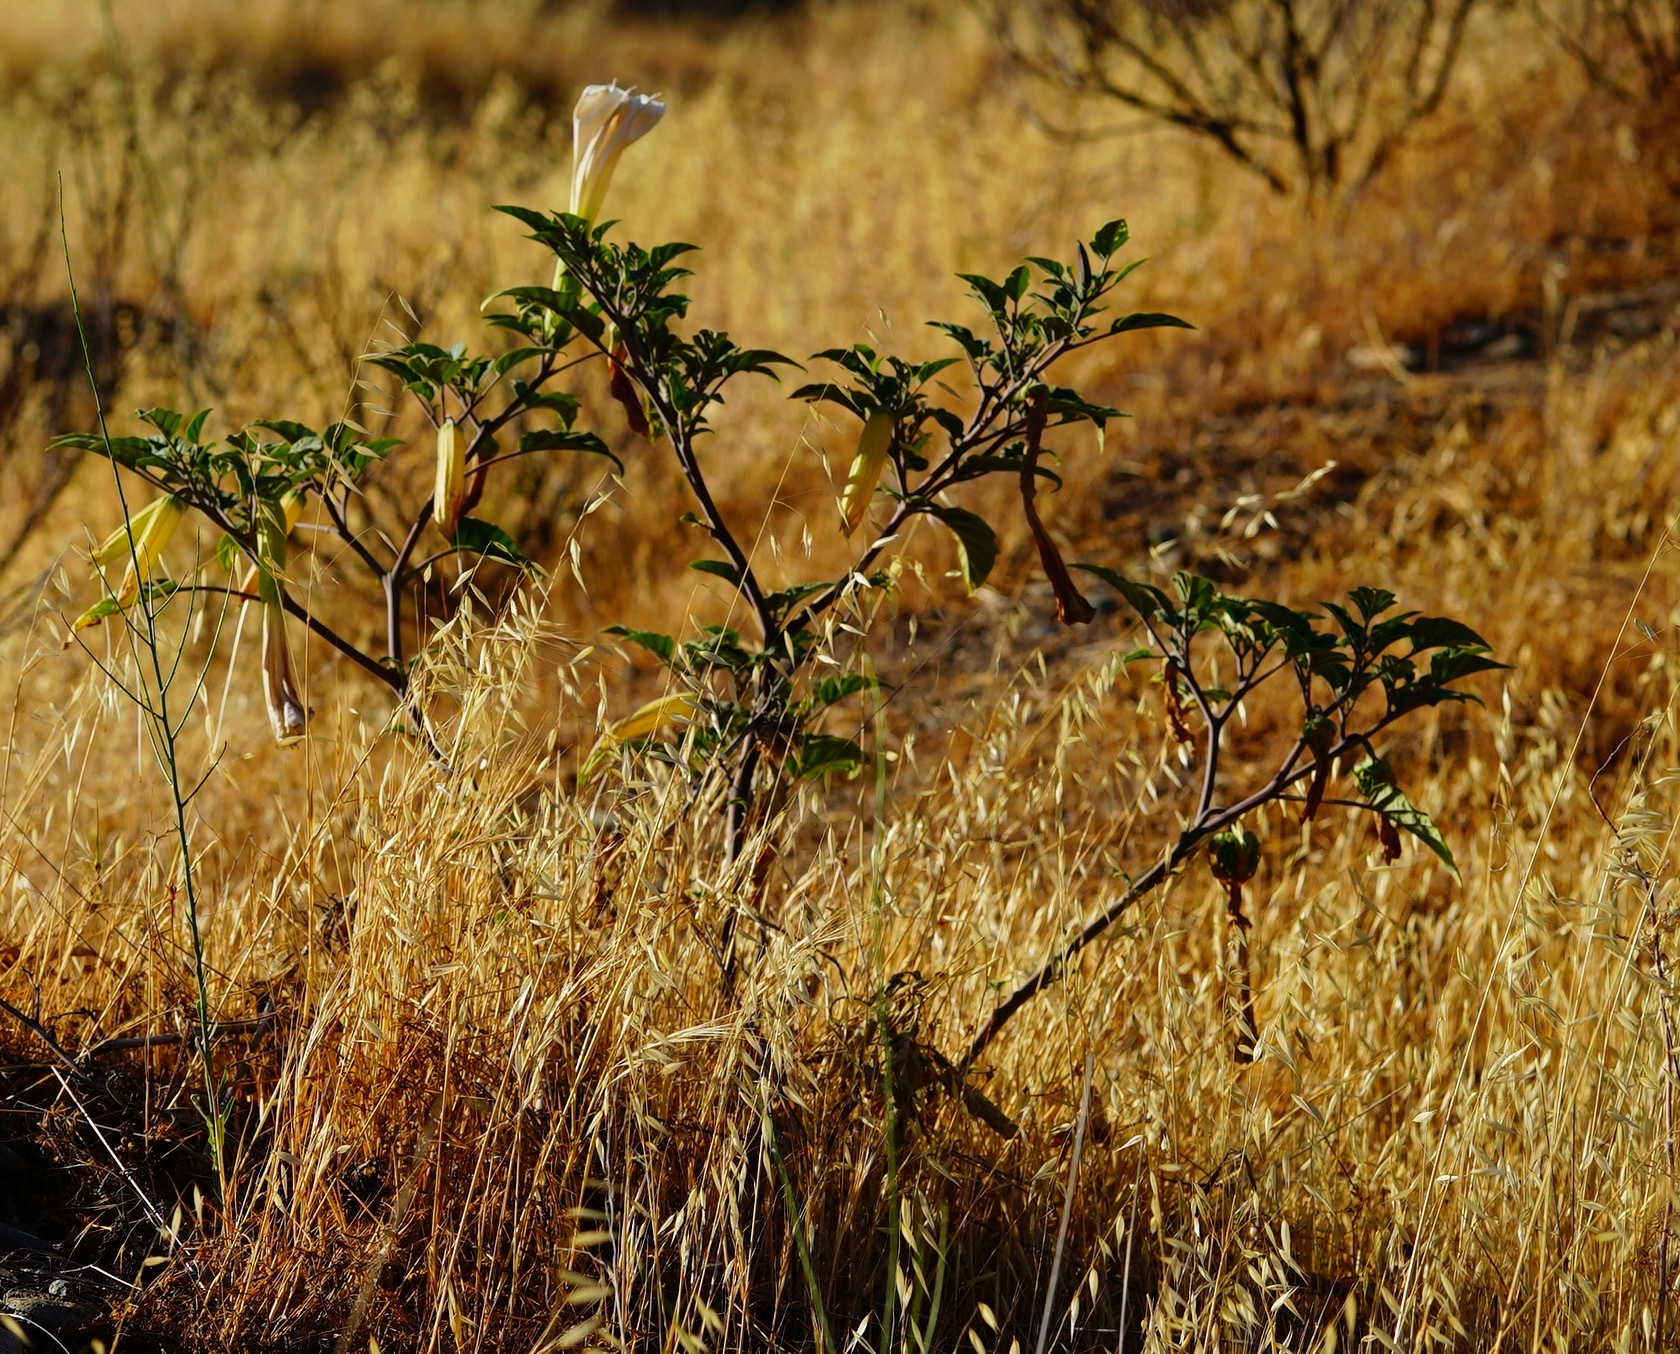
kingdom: Plantae
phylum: Tracheophyta
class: Magnoliopsida
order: Solanales
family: Solanaceae
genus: Datura
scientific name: Datura wrightii
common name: Sacred thorn-apple
